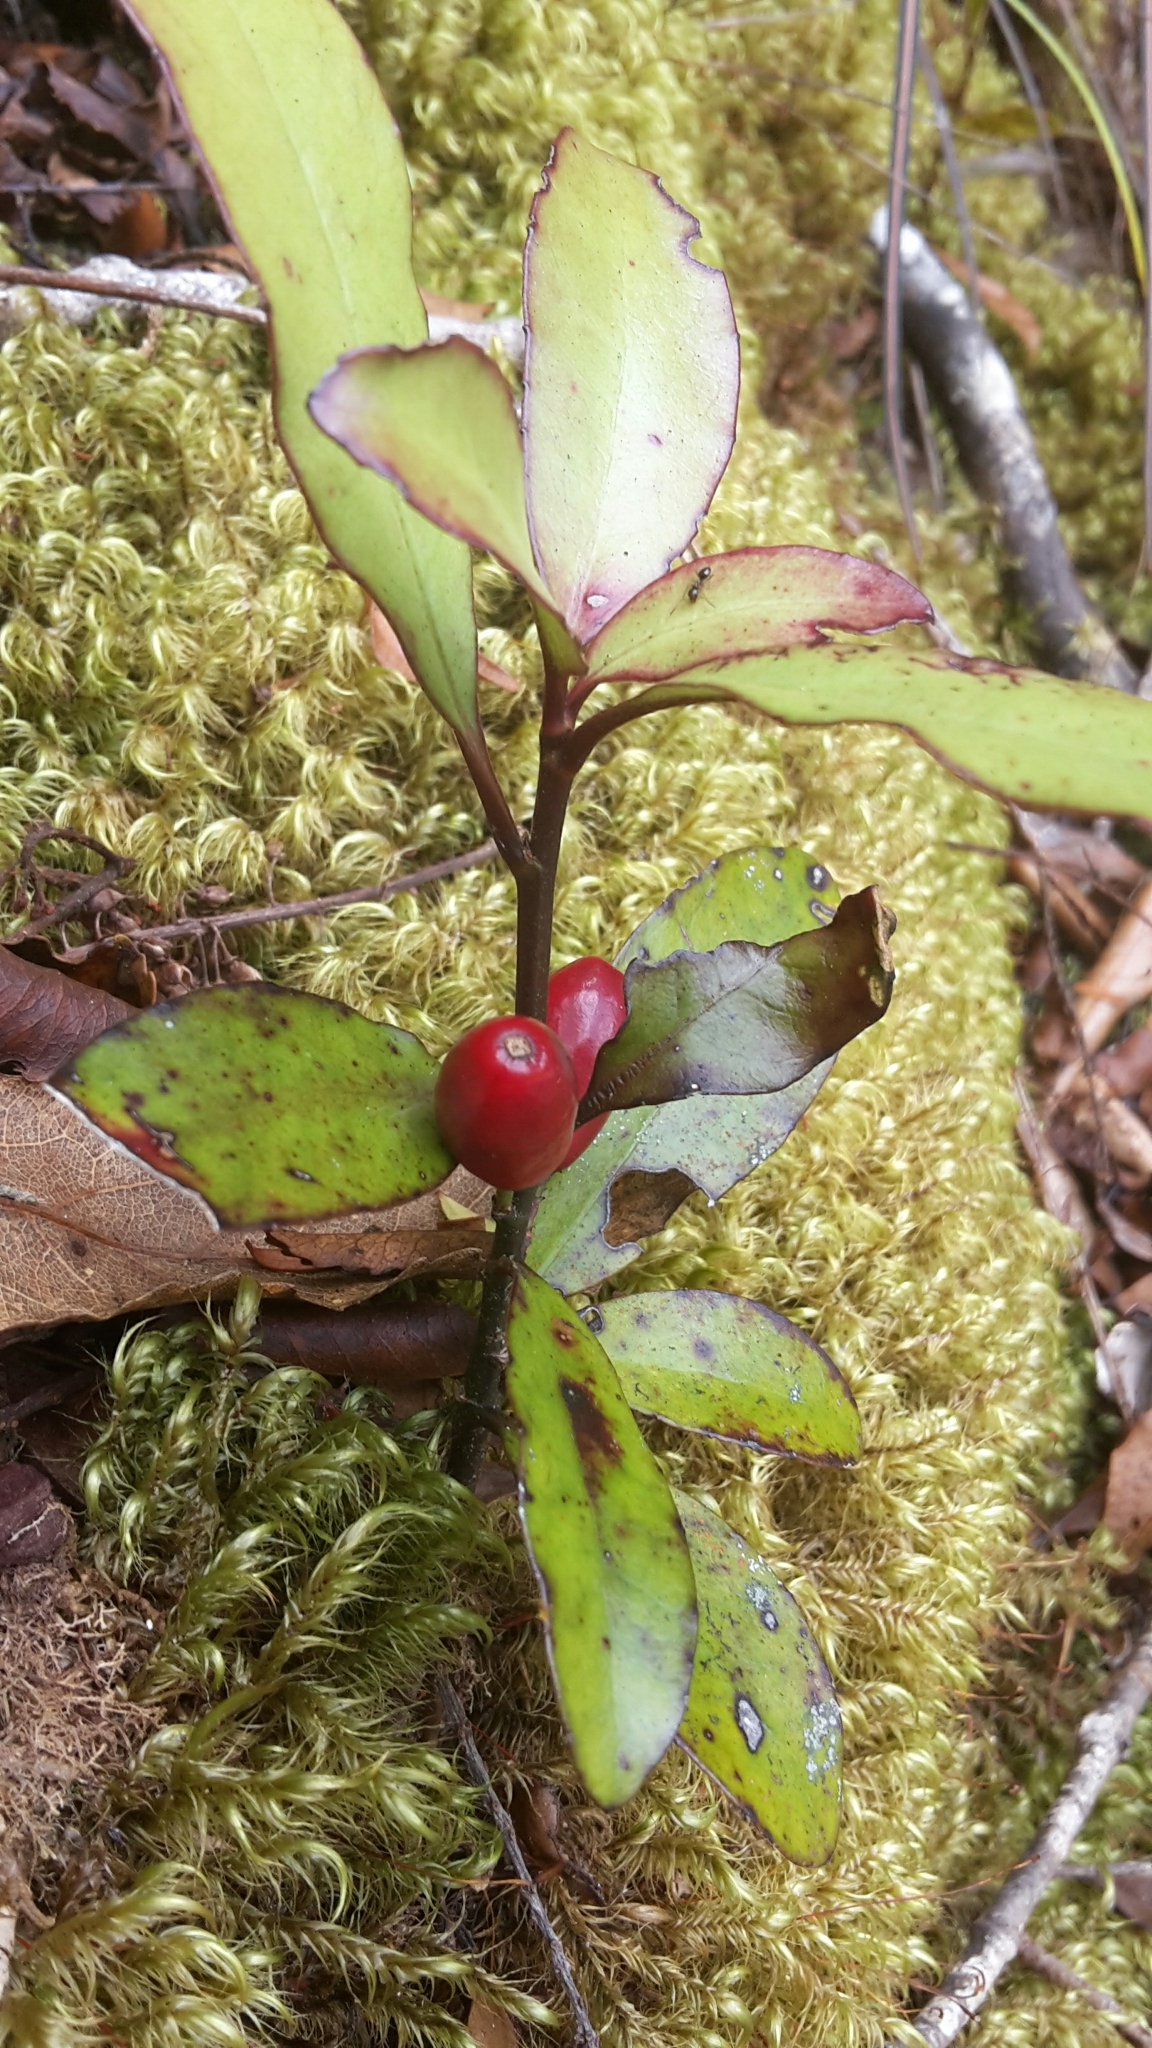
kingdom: Plantae
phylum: Tracheophyta
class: Magnoliopsida
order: Asterales
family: Alseuosmiaceae
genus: Alseuosmia
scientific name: Alseuosmia pusilla
